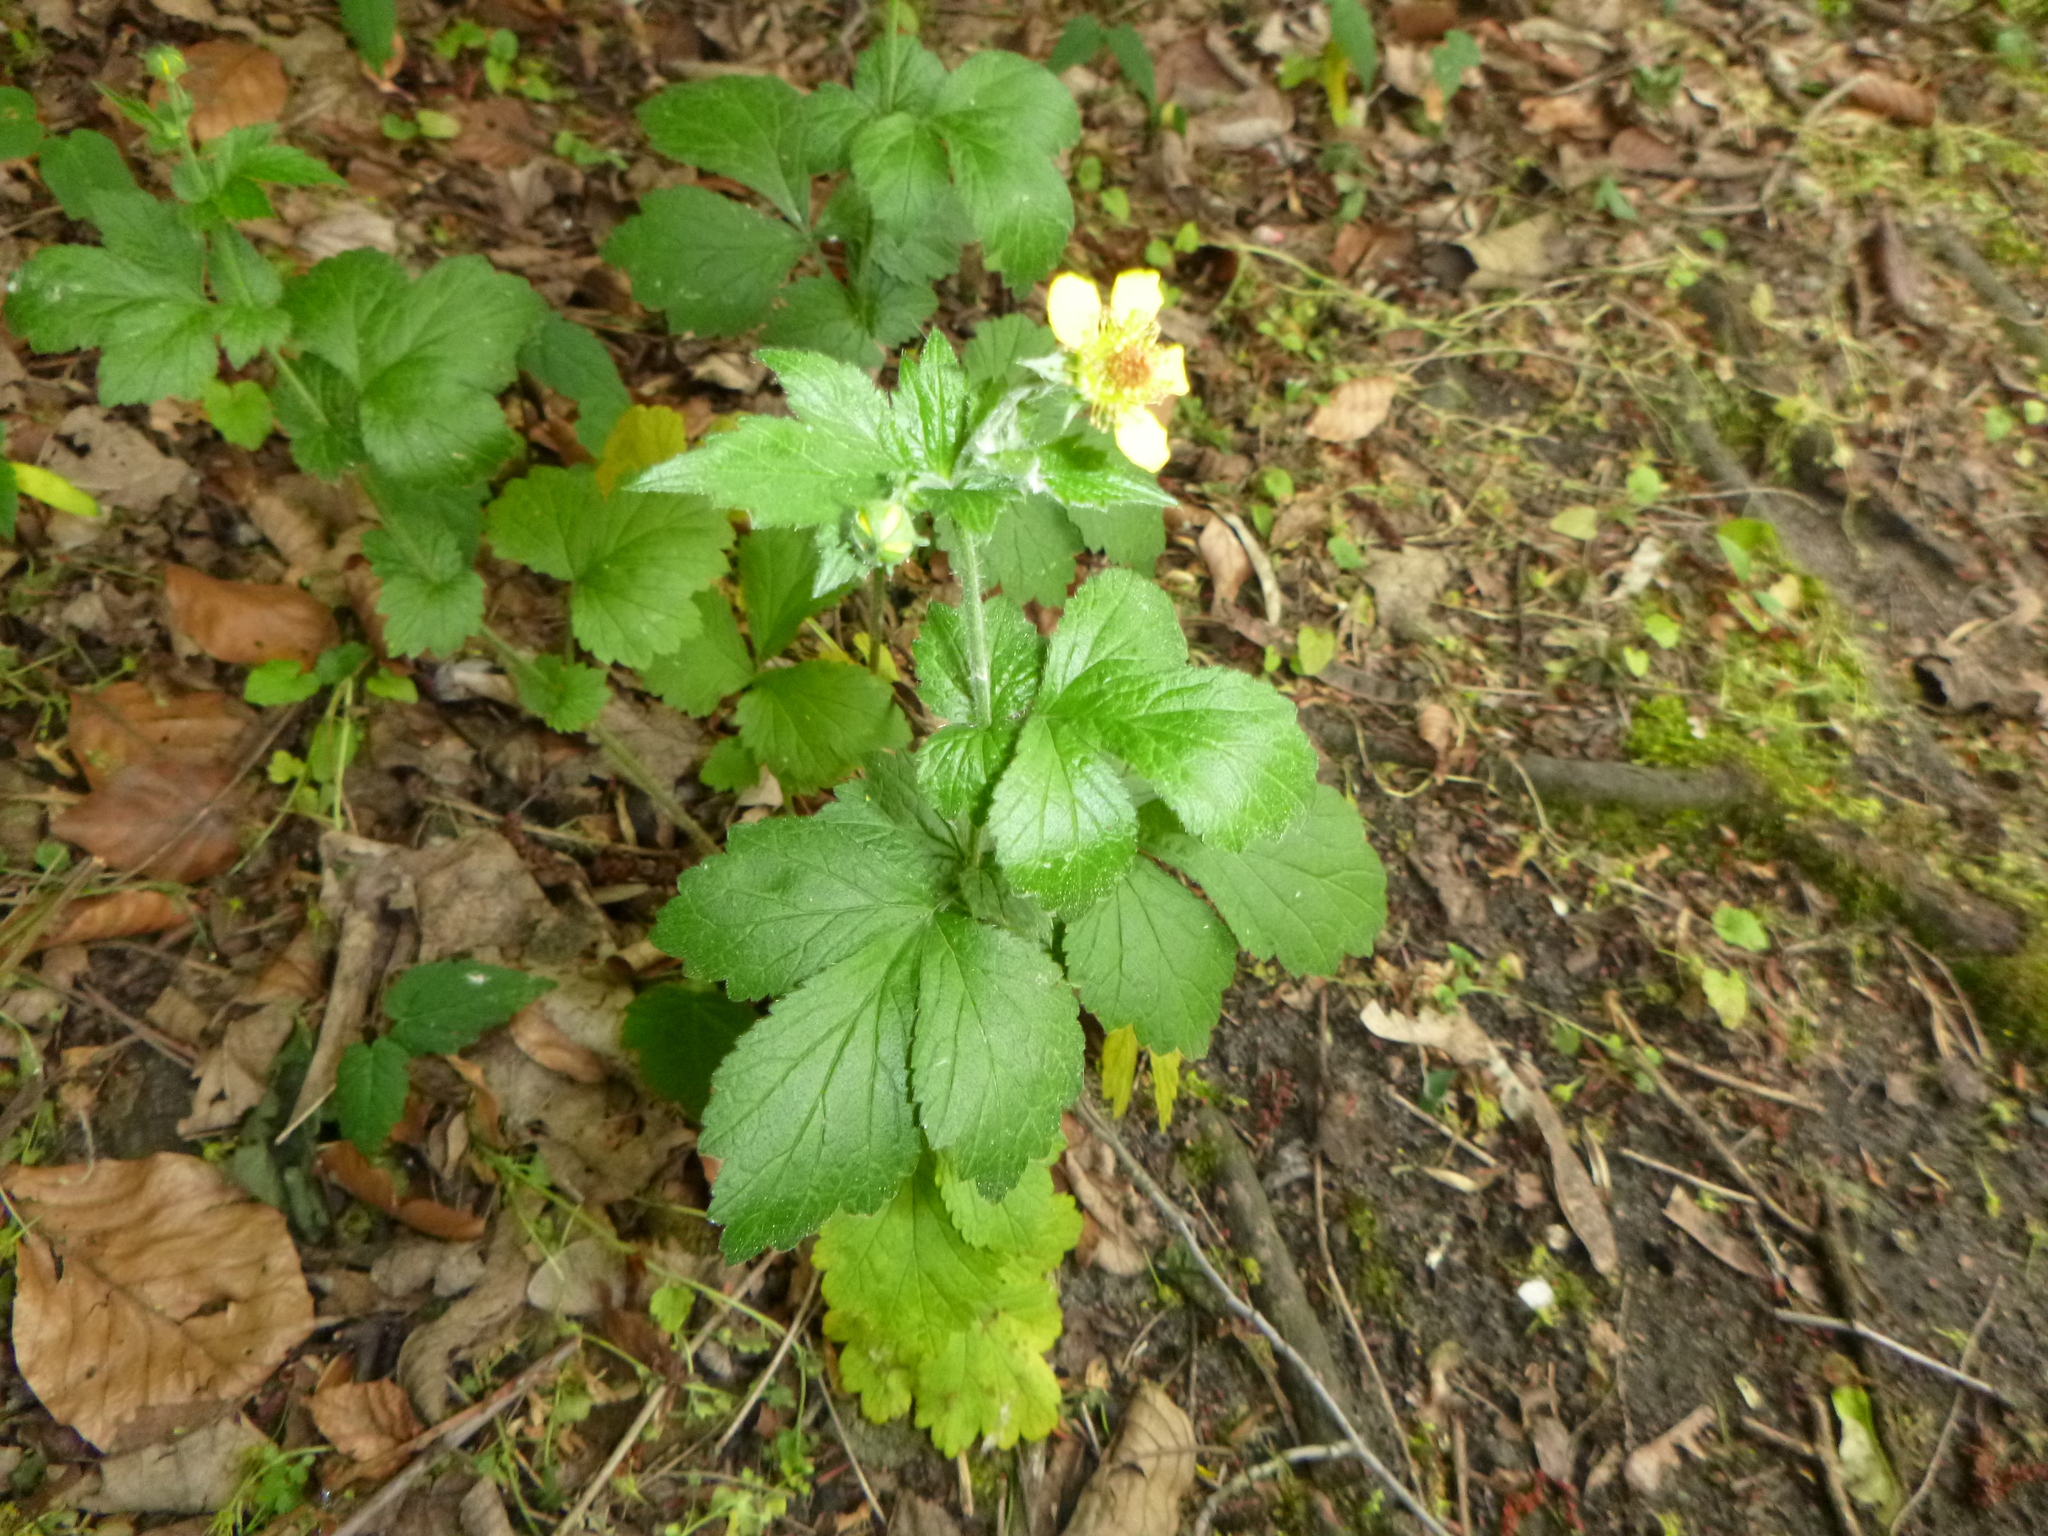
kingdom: Plantae
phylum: Tracheophyta
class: Magnoliopsida
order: Rosales
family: Rosaceae
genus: Geum
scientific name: Geum urbanum
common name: Wood avens
